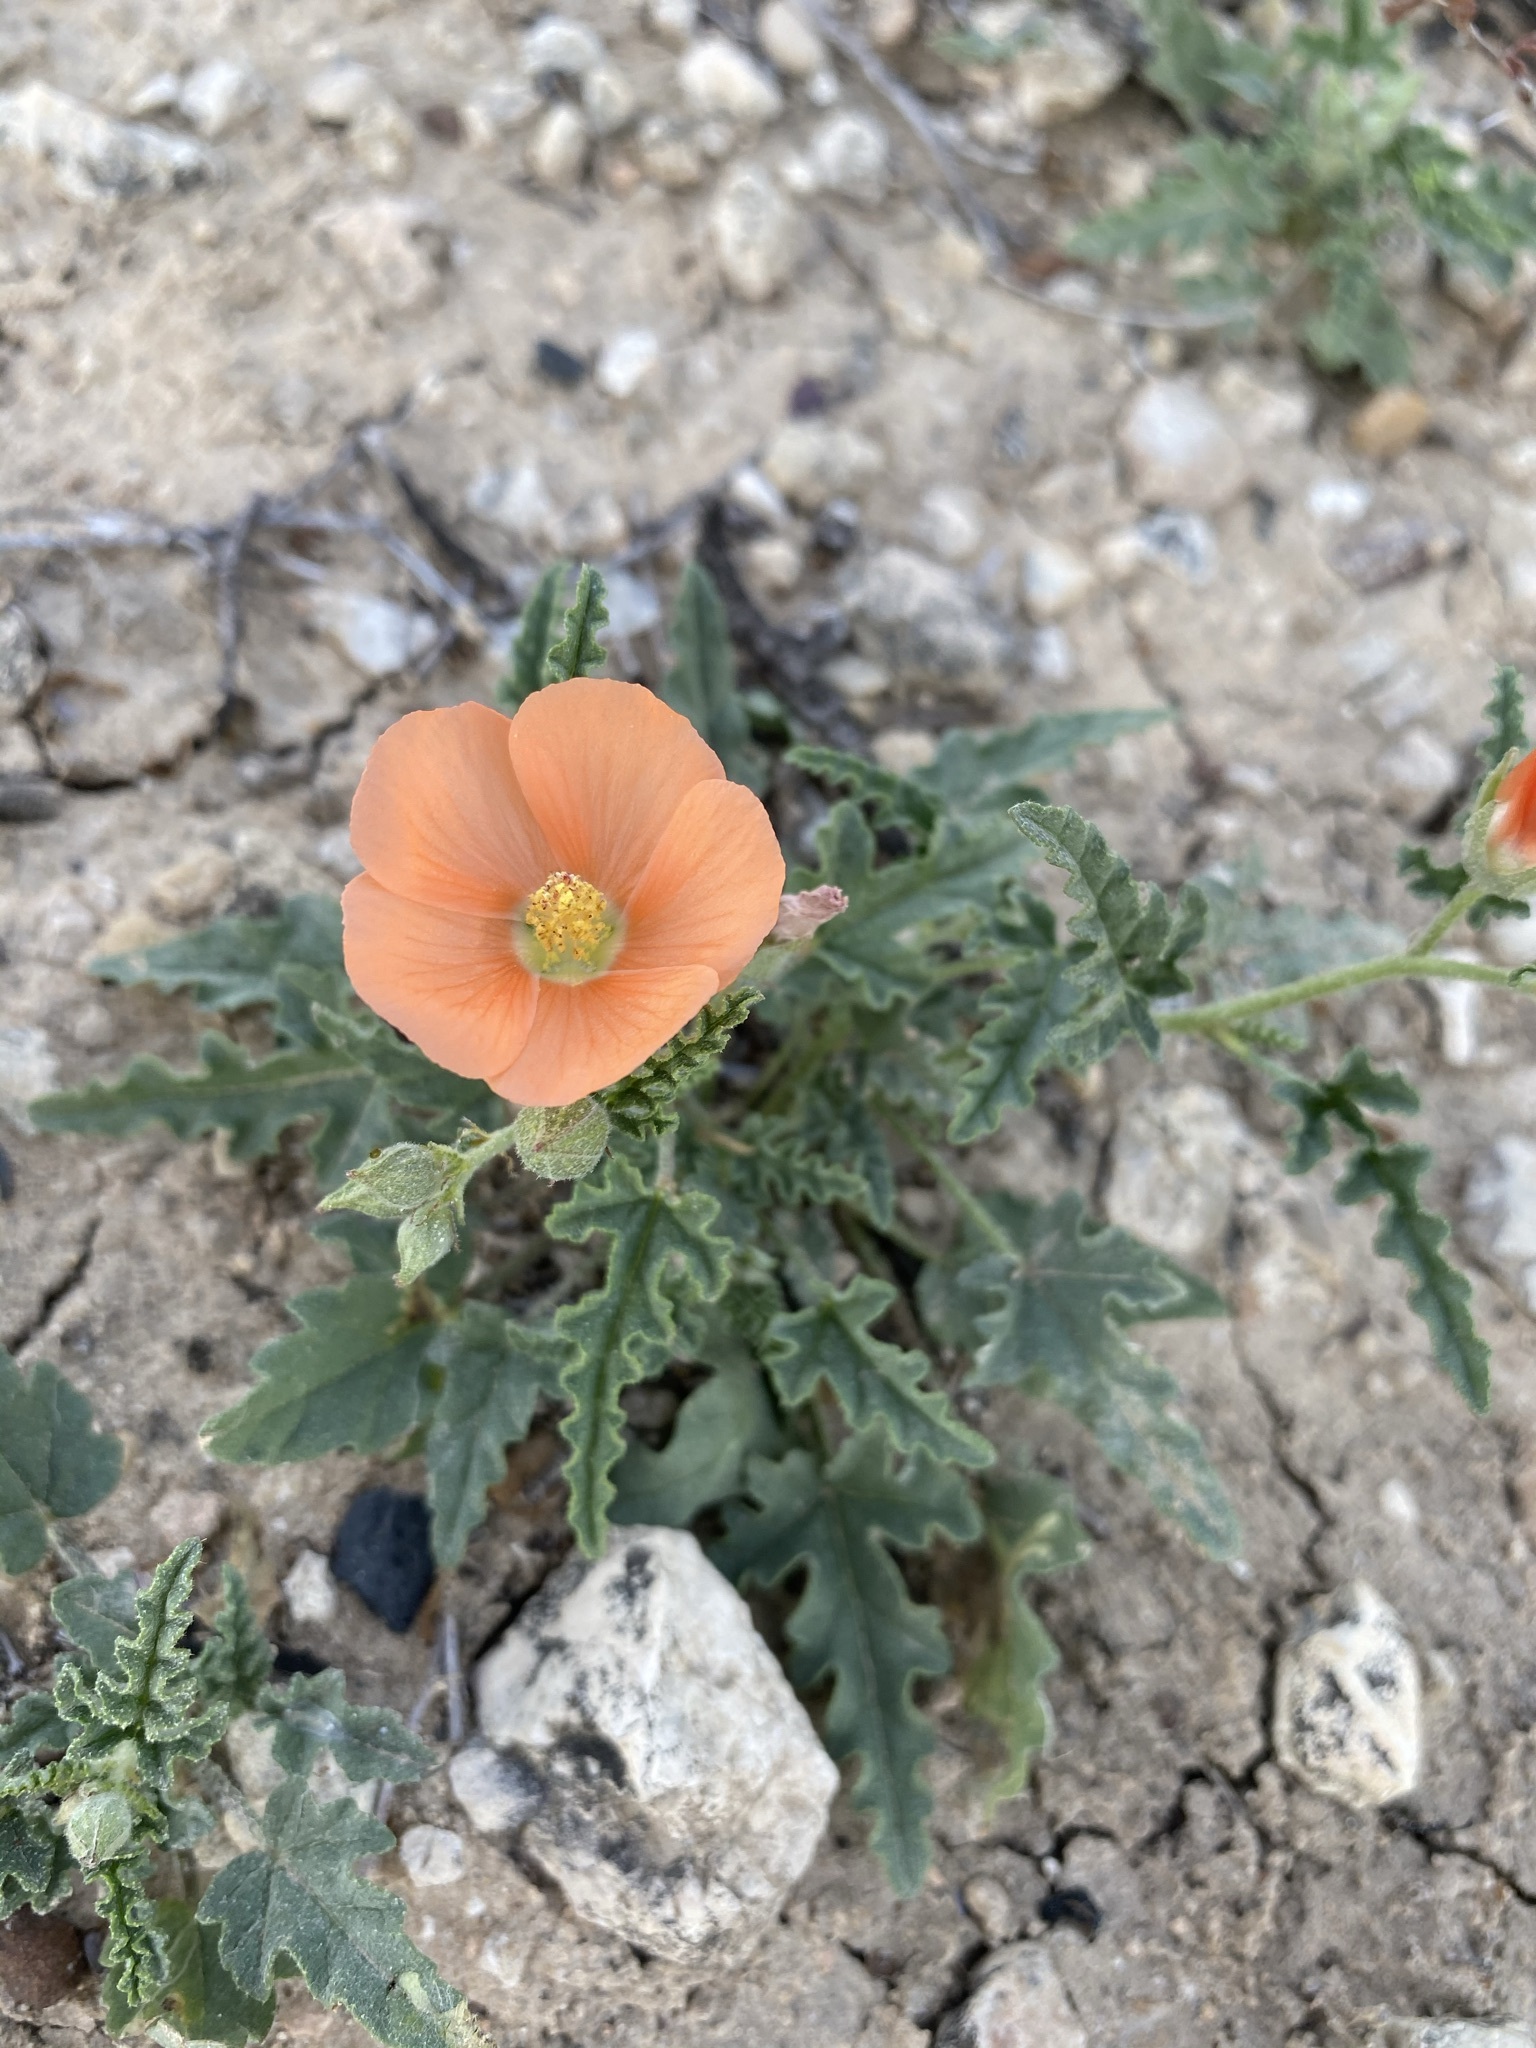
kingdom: Plantae
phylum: Tracheophyta
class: Magnoliopsida
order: Malvales
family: Malvaceae
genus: Sphaeralcea
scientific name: Sphaeralcea hastulata
